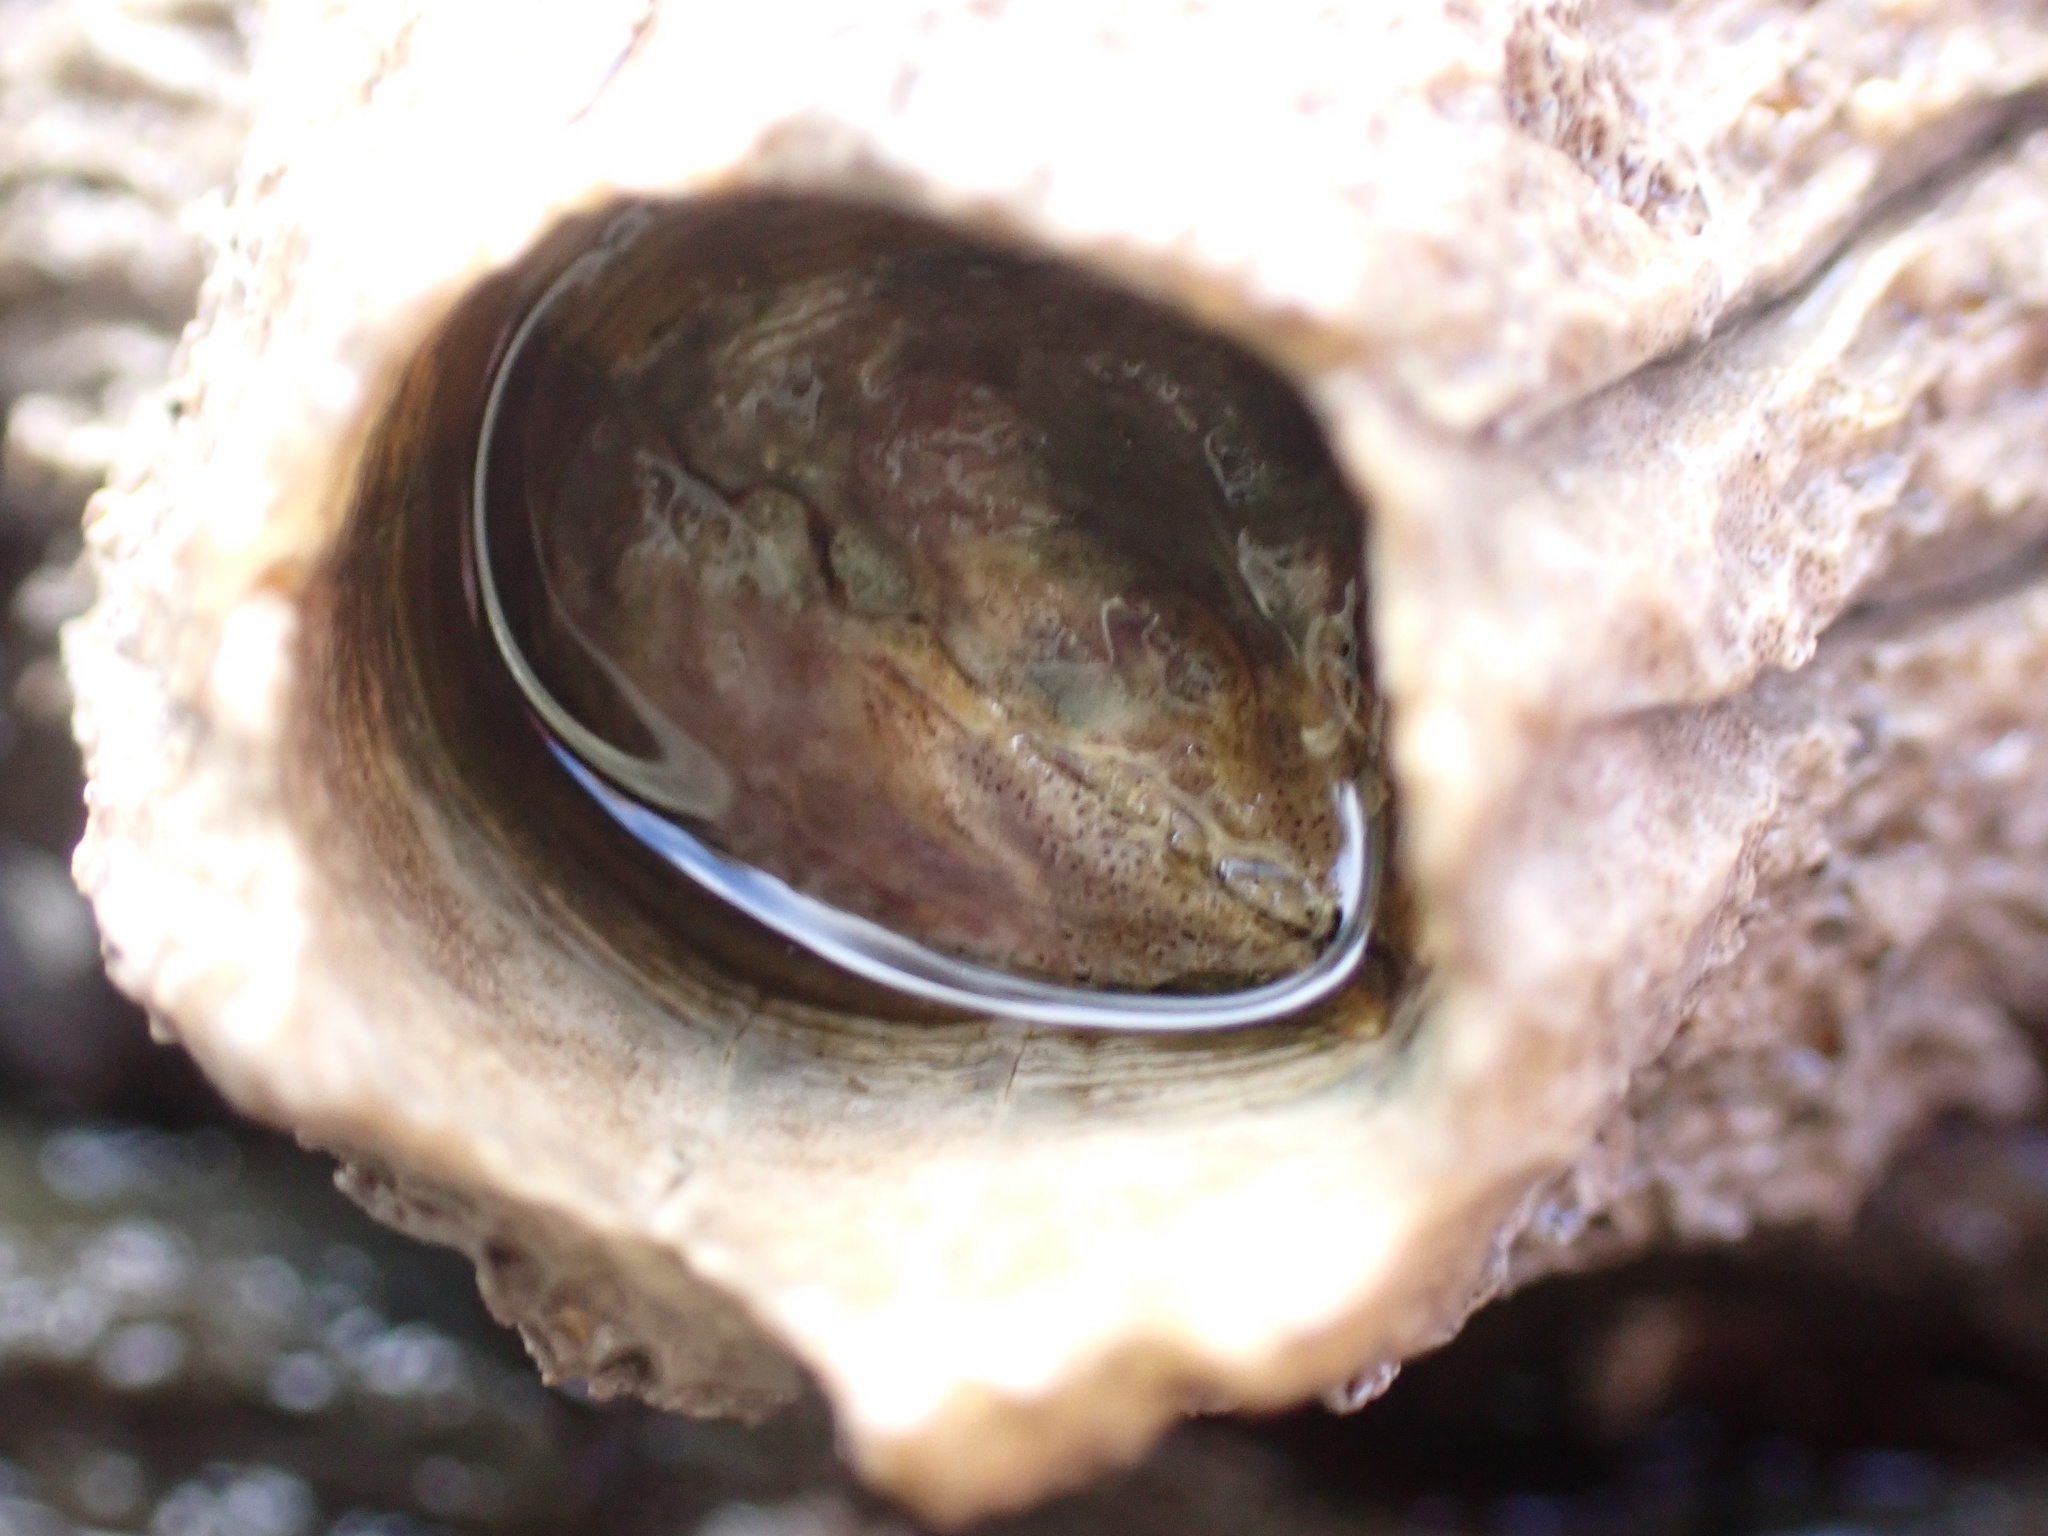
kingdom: Animalia
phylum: Arthropoda
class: Maxillopoda
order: Sessilia
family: Archaeobalanidae
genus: Semibalanus
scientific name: Semibalanus cariosus
